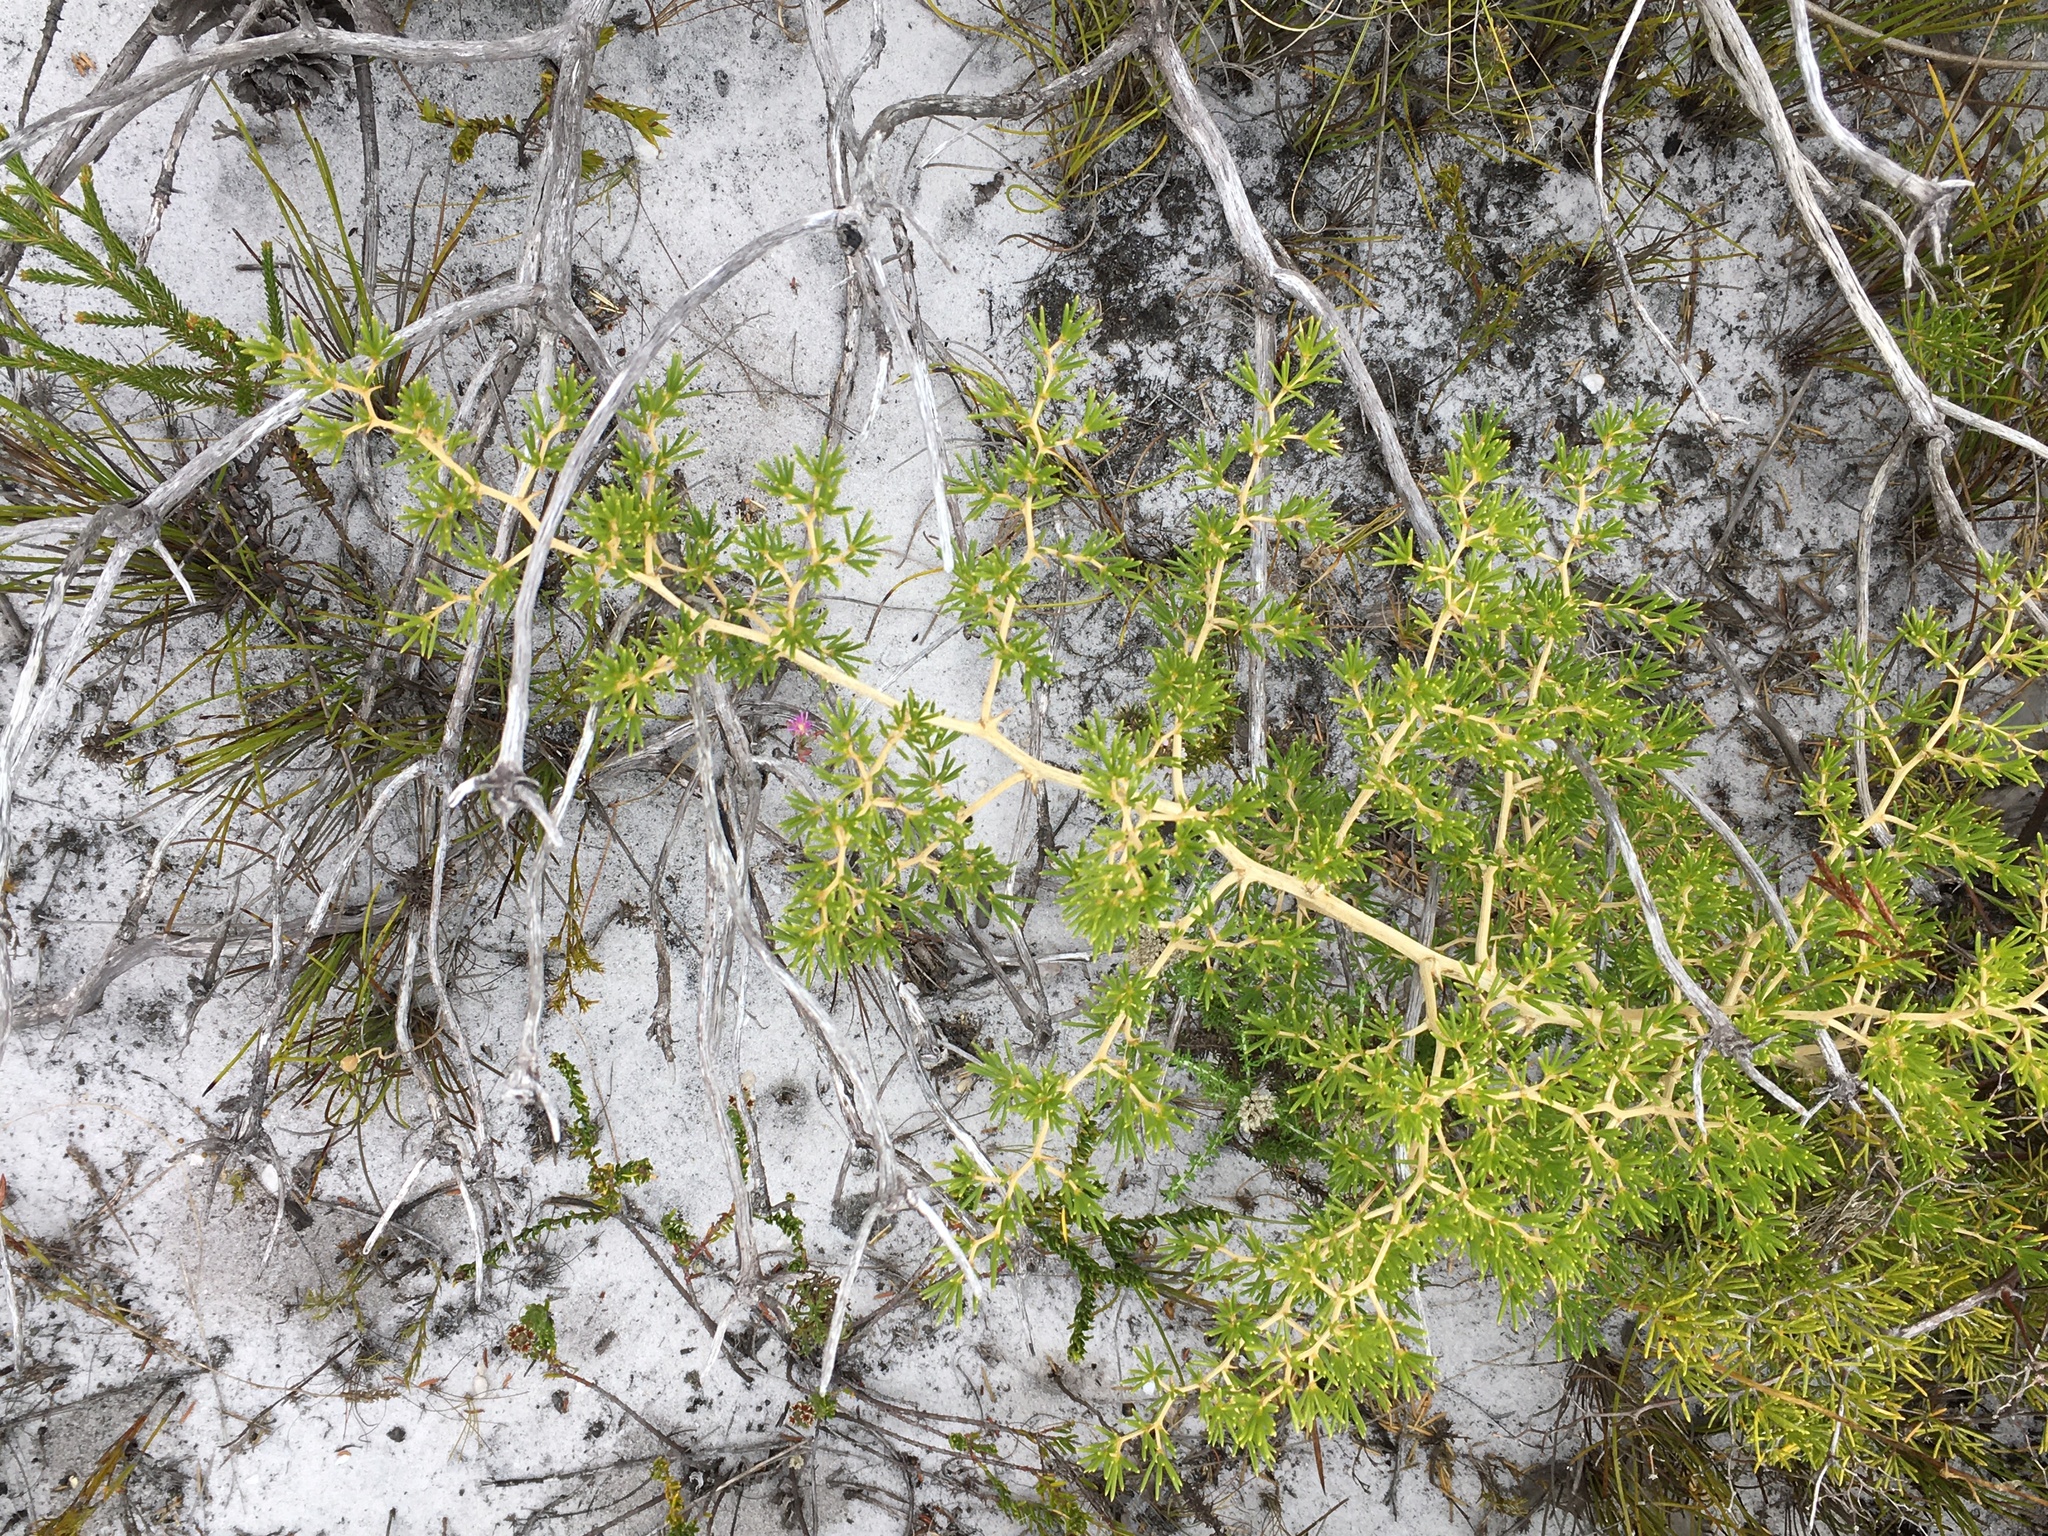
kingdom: Plantae
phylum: Tracheophyta
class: Liliopsida
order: Asparagales
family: Asparagaceae
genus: Asparagus
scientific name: Asparagus lignosus
